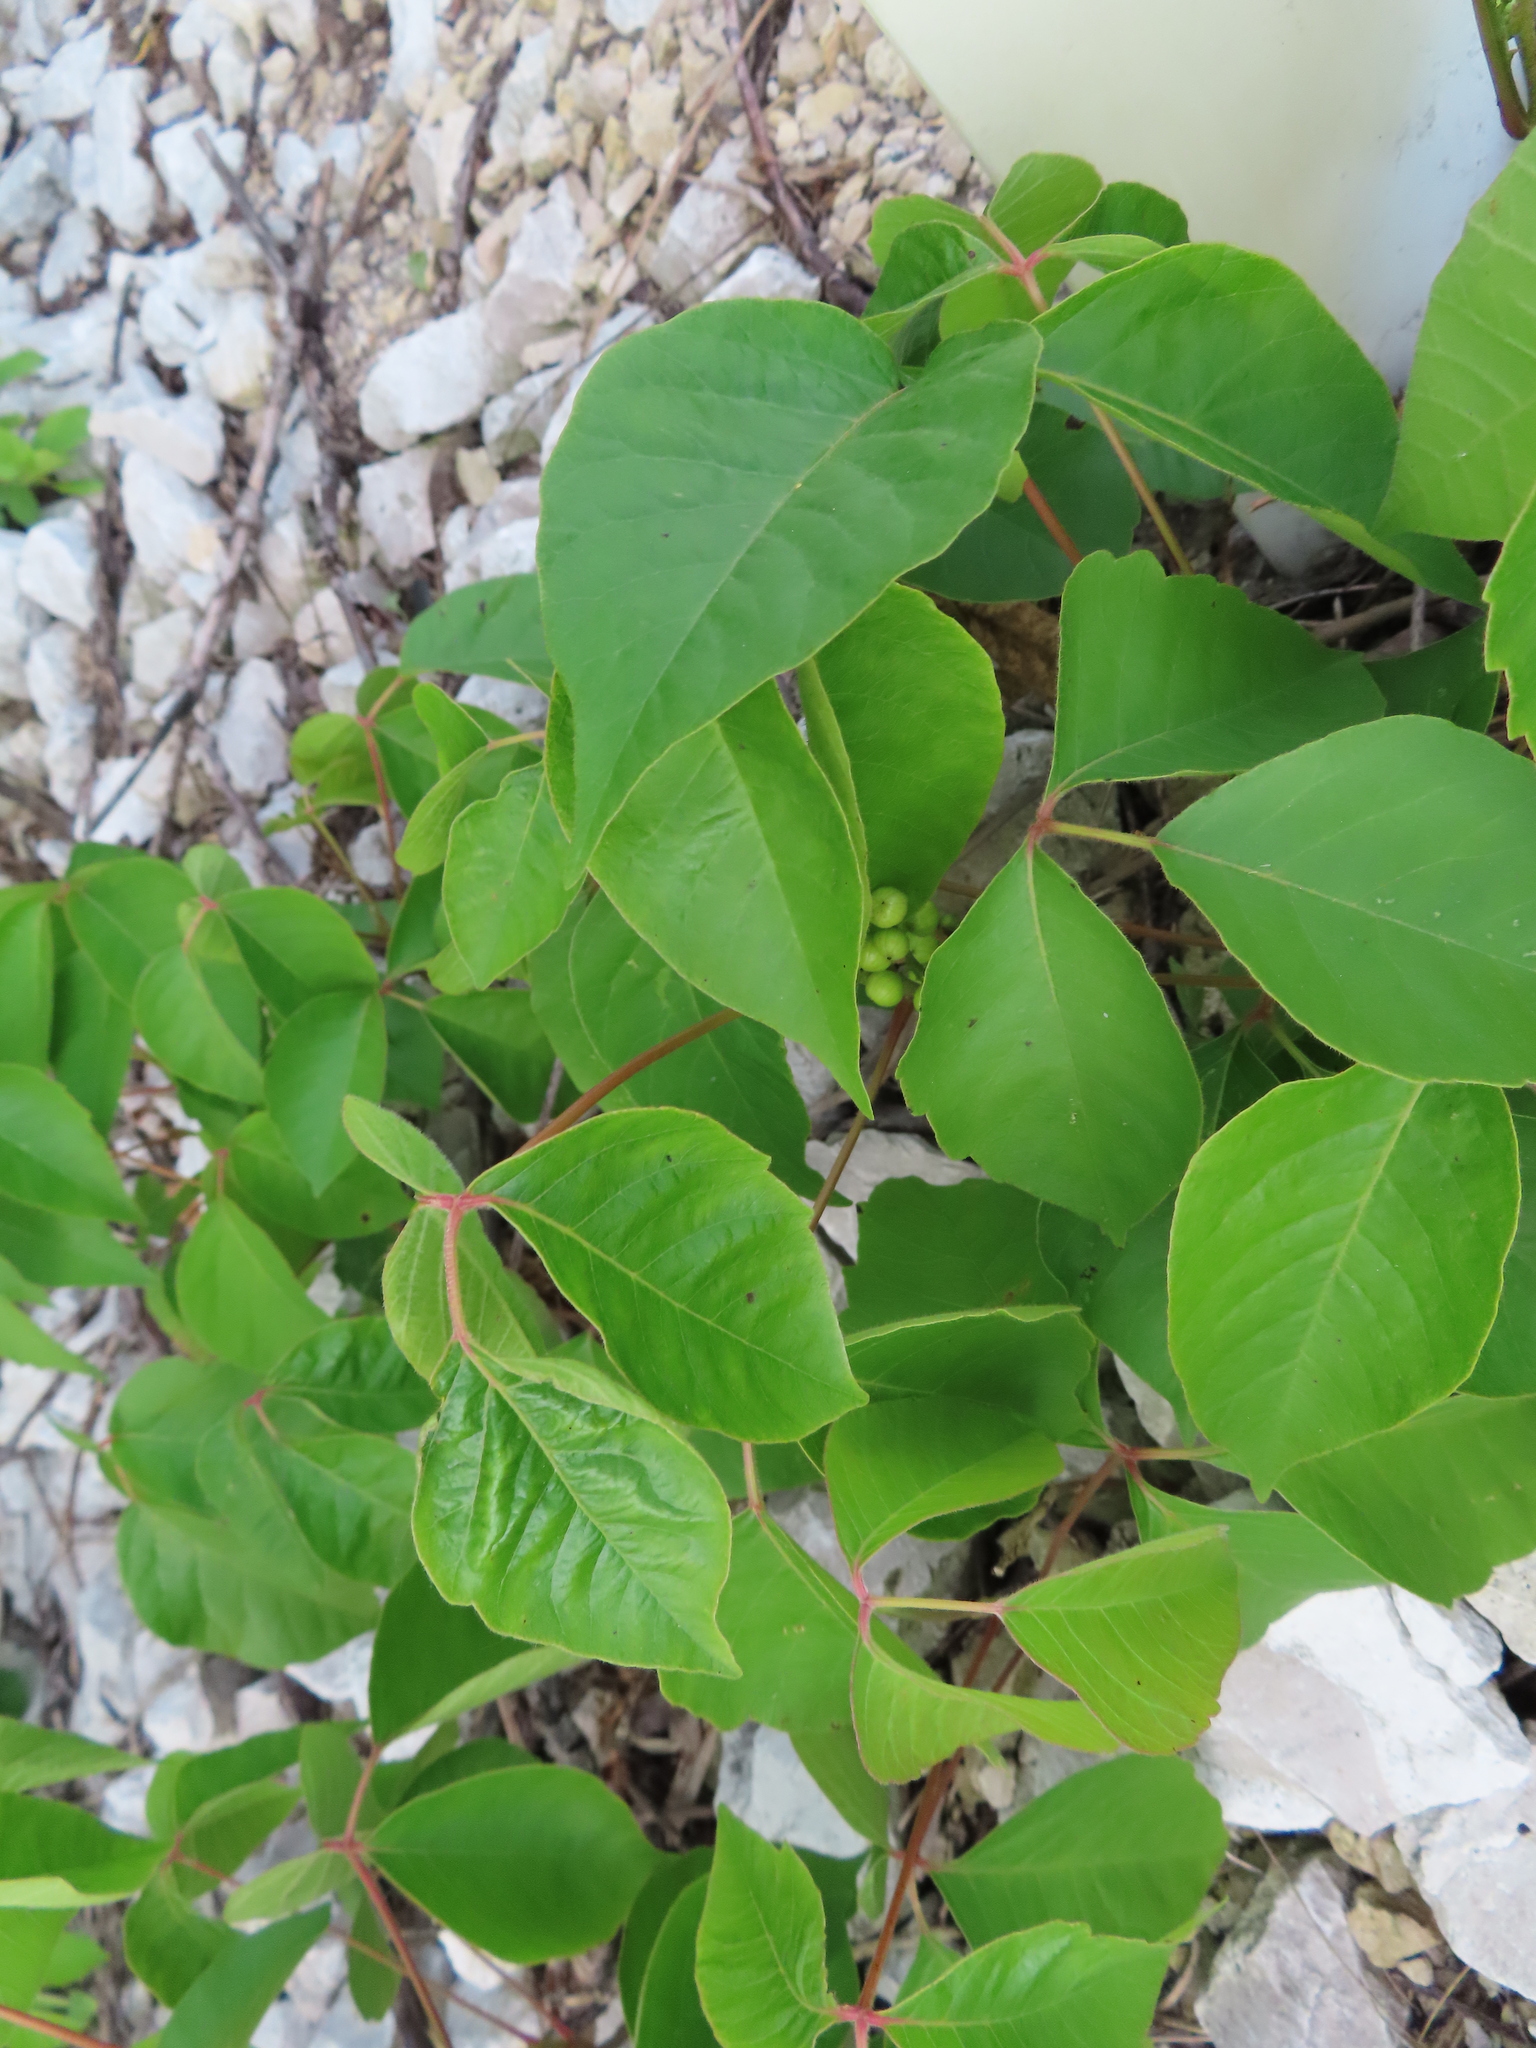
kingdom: Plantae
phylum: Tracheophyta
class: Magnoliopsida
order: Sapindales
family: Anacardiaceae
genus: Toxicodendron
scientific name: Toxicodendron rydbergii
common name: Rydberg's poison-ivy
